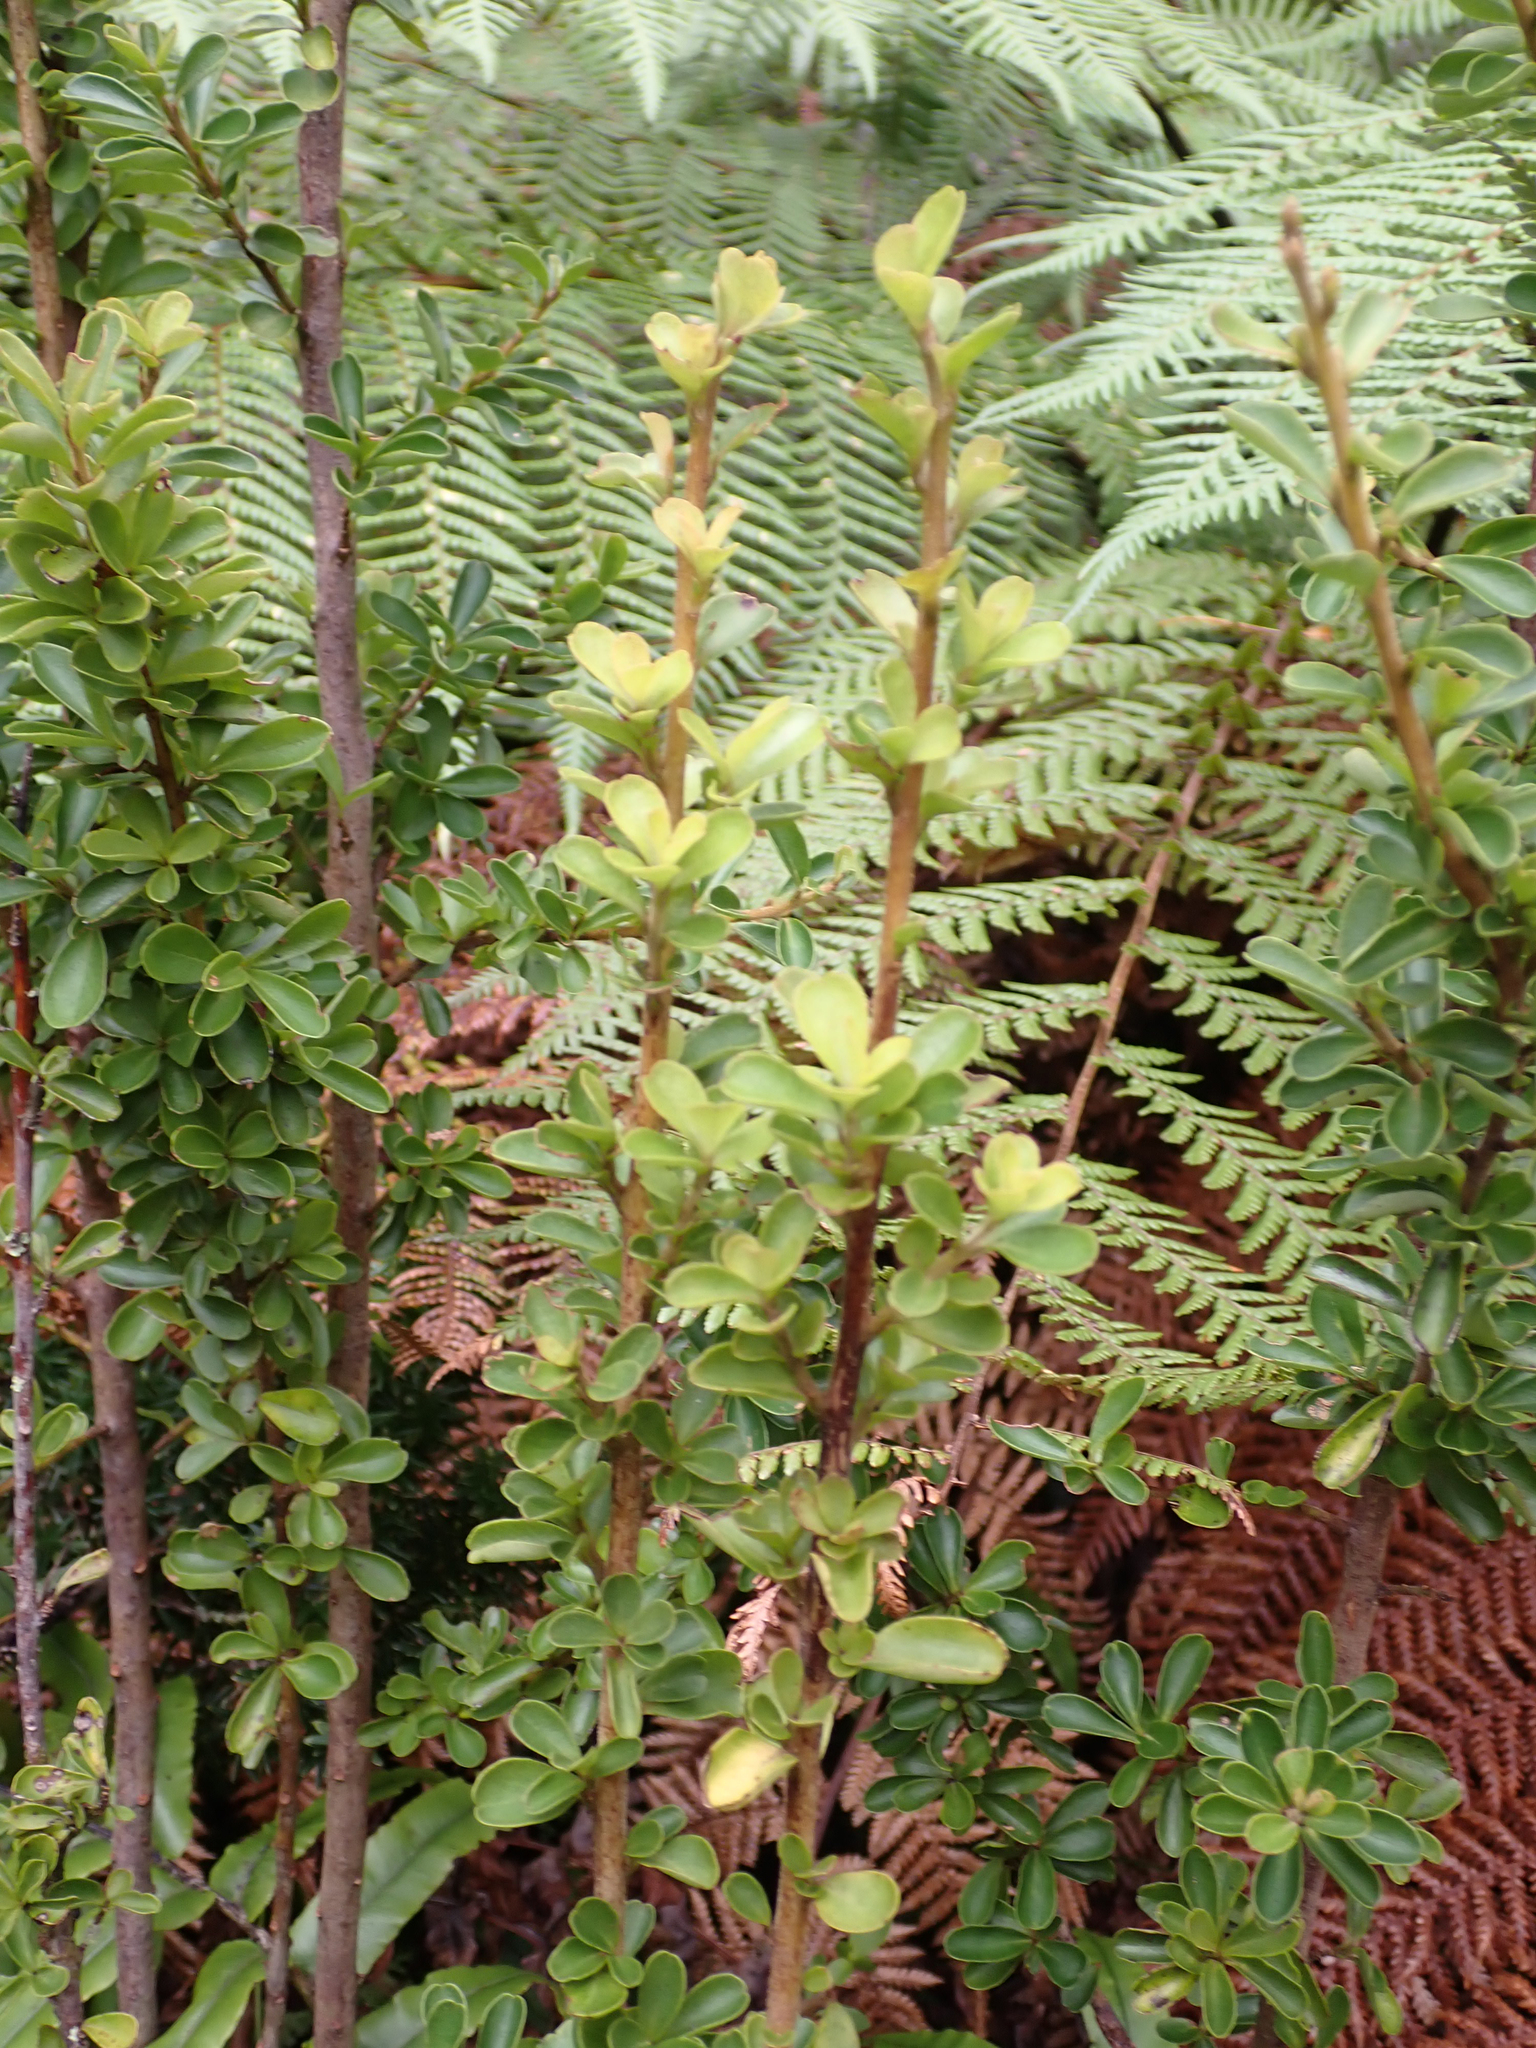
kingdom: Plantae
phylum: Tracheophyta
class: Magnoliopsida
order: Ericales
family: Primulaceae
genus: Myrsine
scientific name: Myrsine coxii
